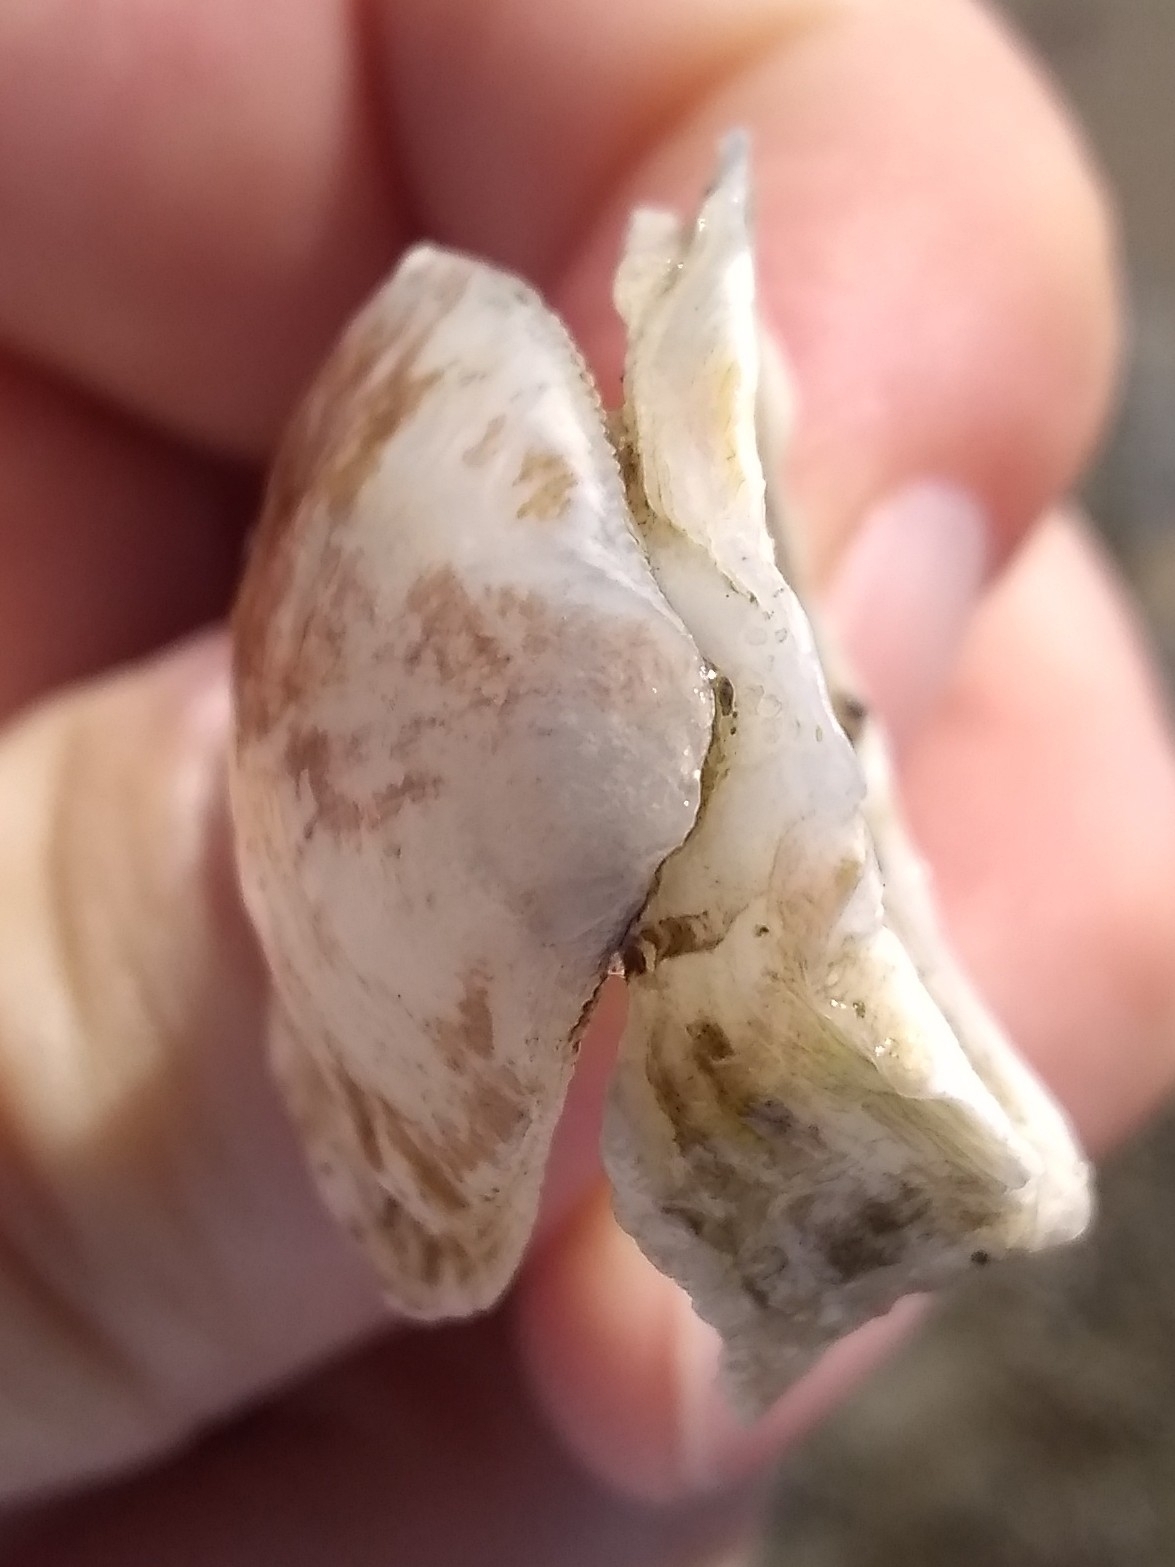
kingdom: Animalia
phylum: Mollusca
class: Bivalvia
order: Ostreida
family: Ostreidae
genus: Ostrea
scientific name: Ostrea lurida
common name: Olympia flat oyster
